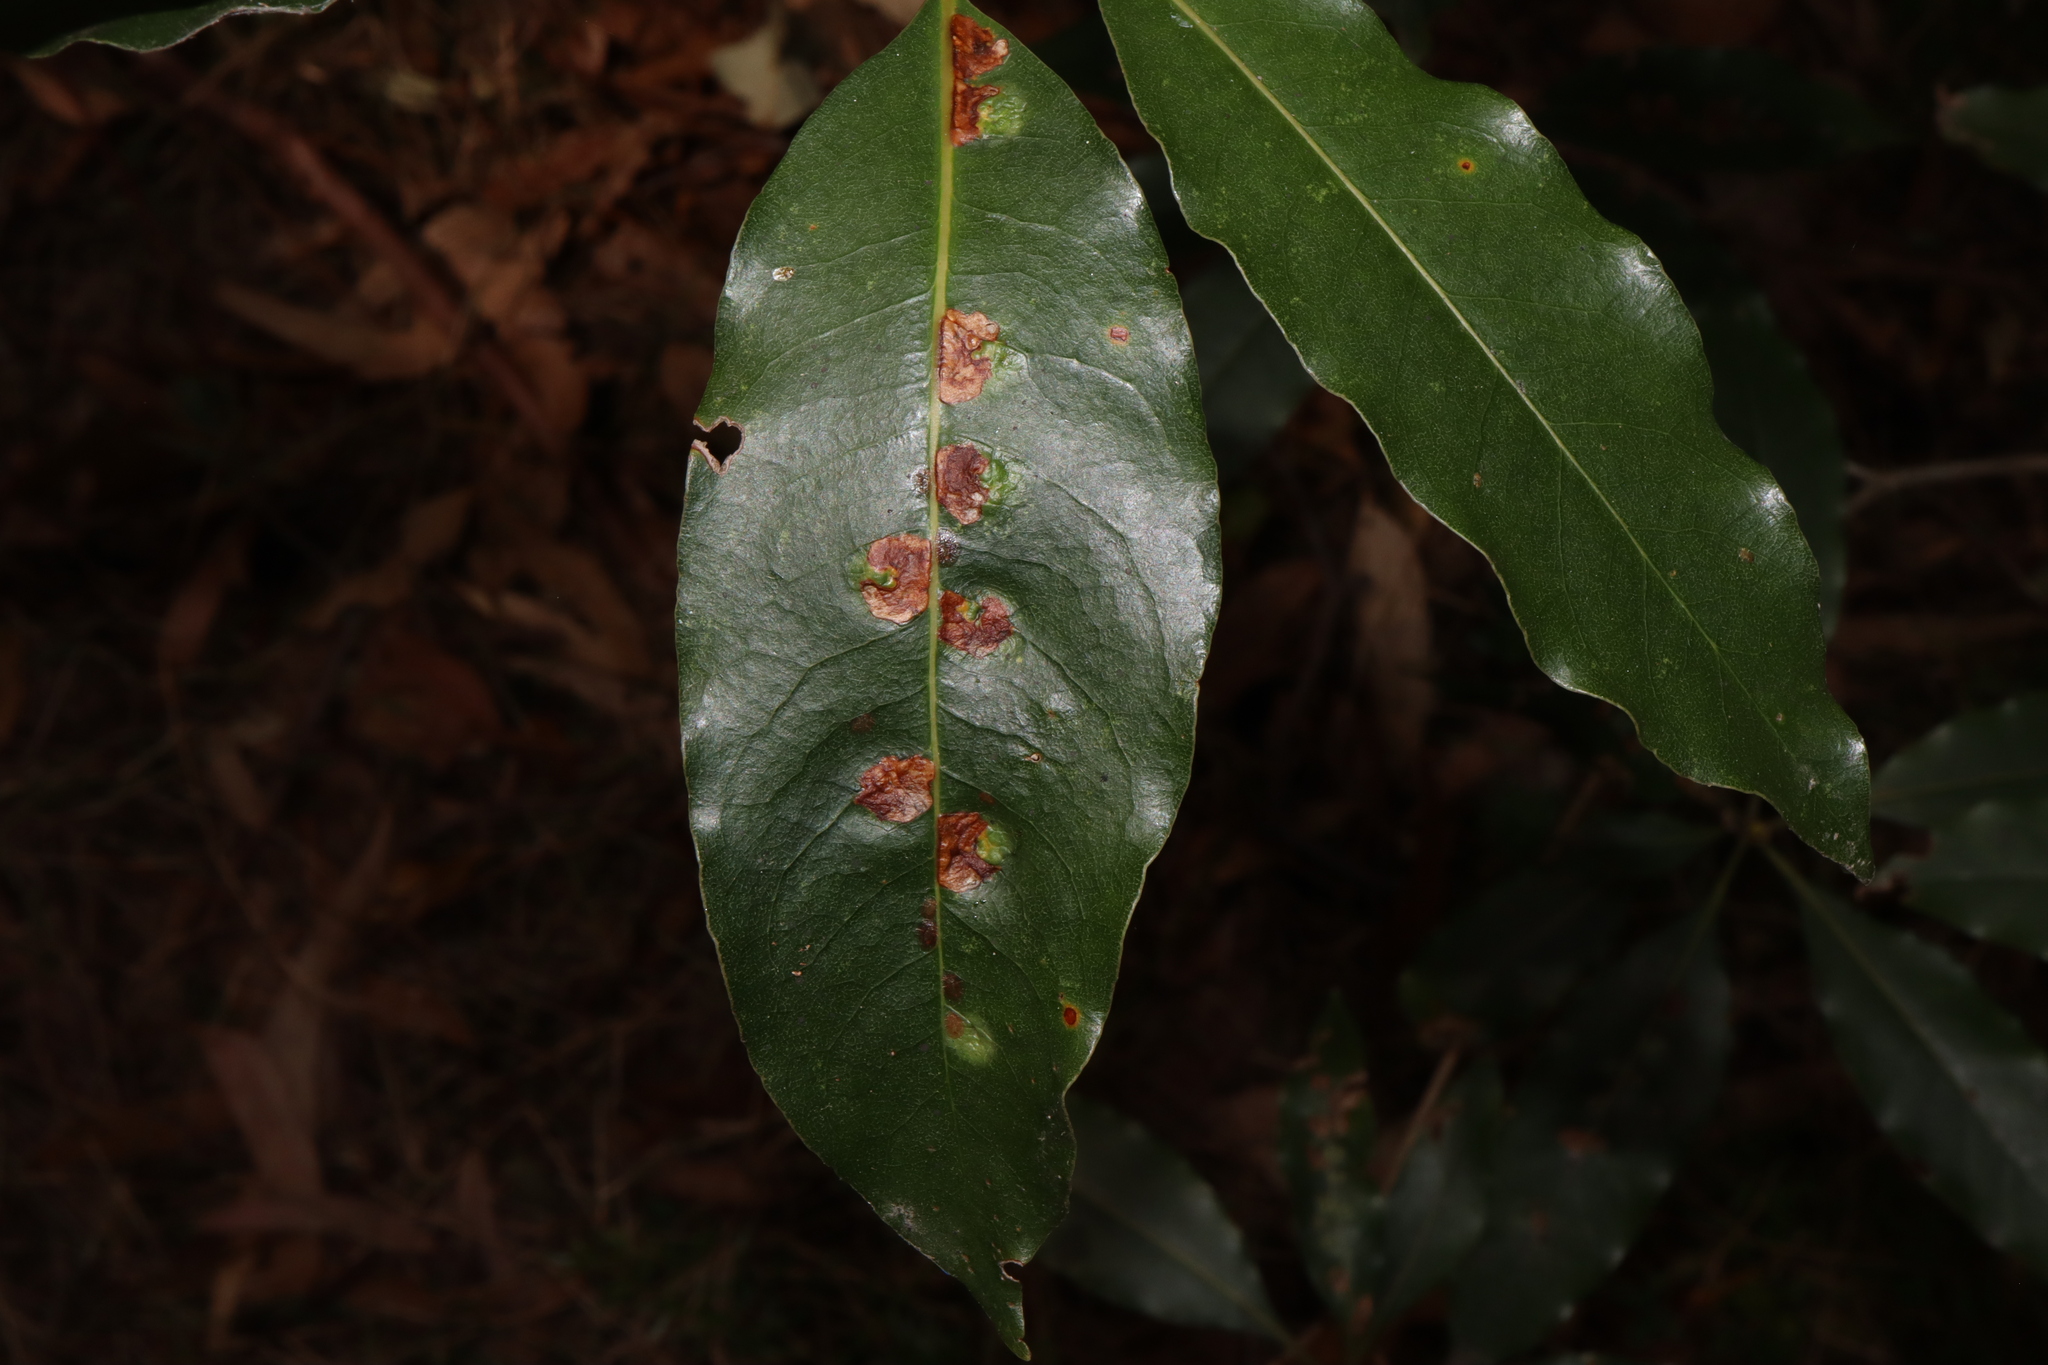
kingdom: Animalia
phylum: Arthropoda
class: Insecta
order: Diptera
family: Agromyzidae
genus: Phytoliriomyza
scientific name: Phytoliriomyza pittosporophylli
